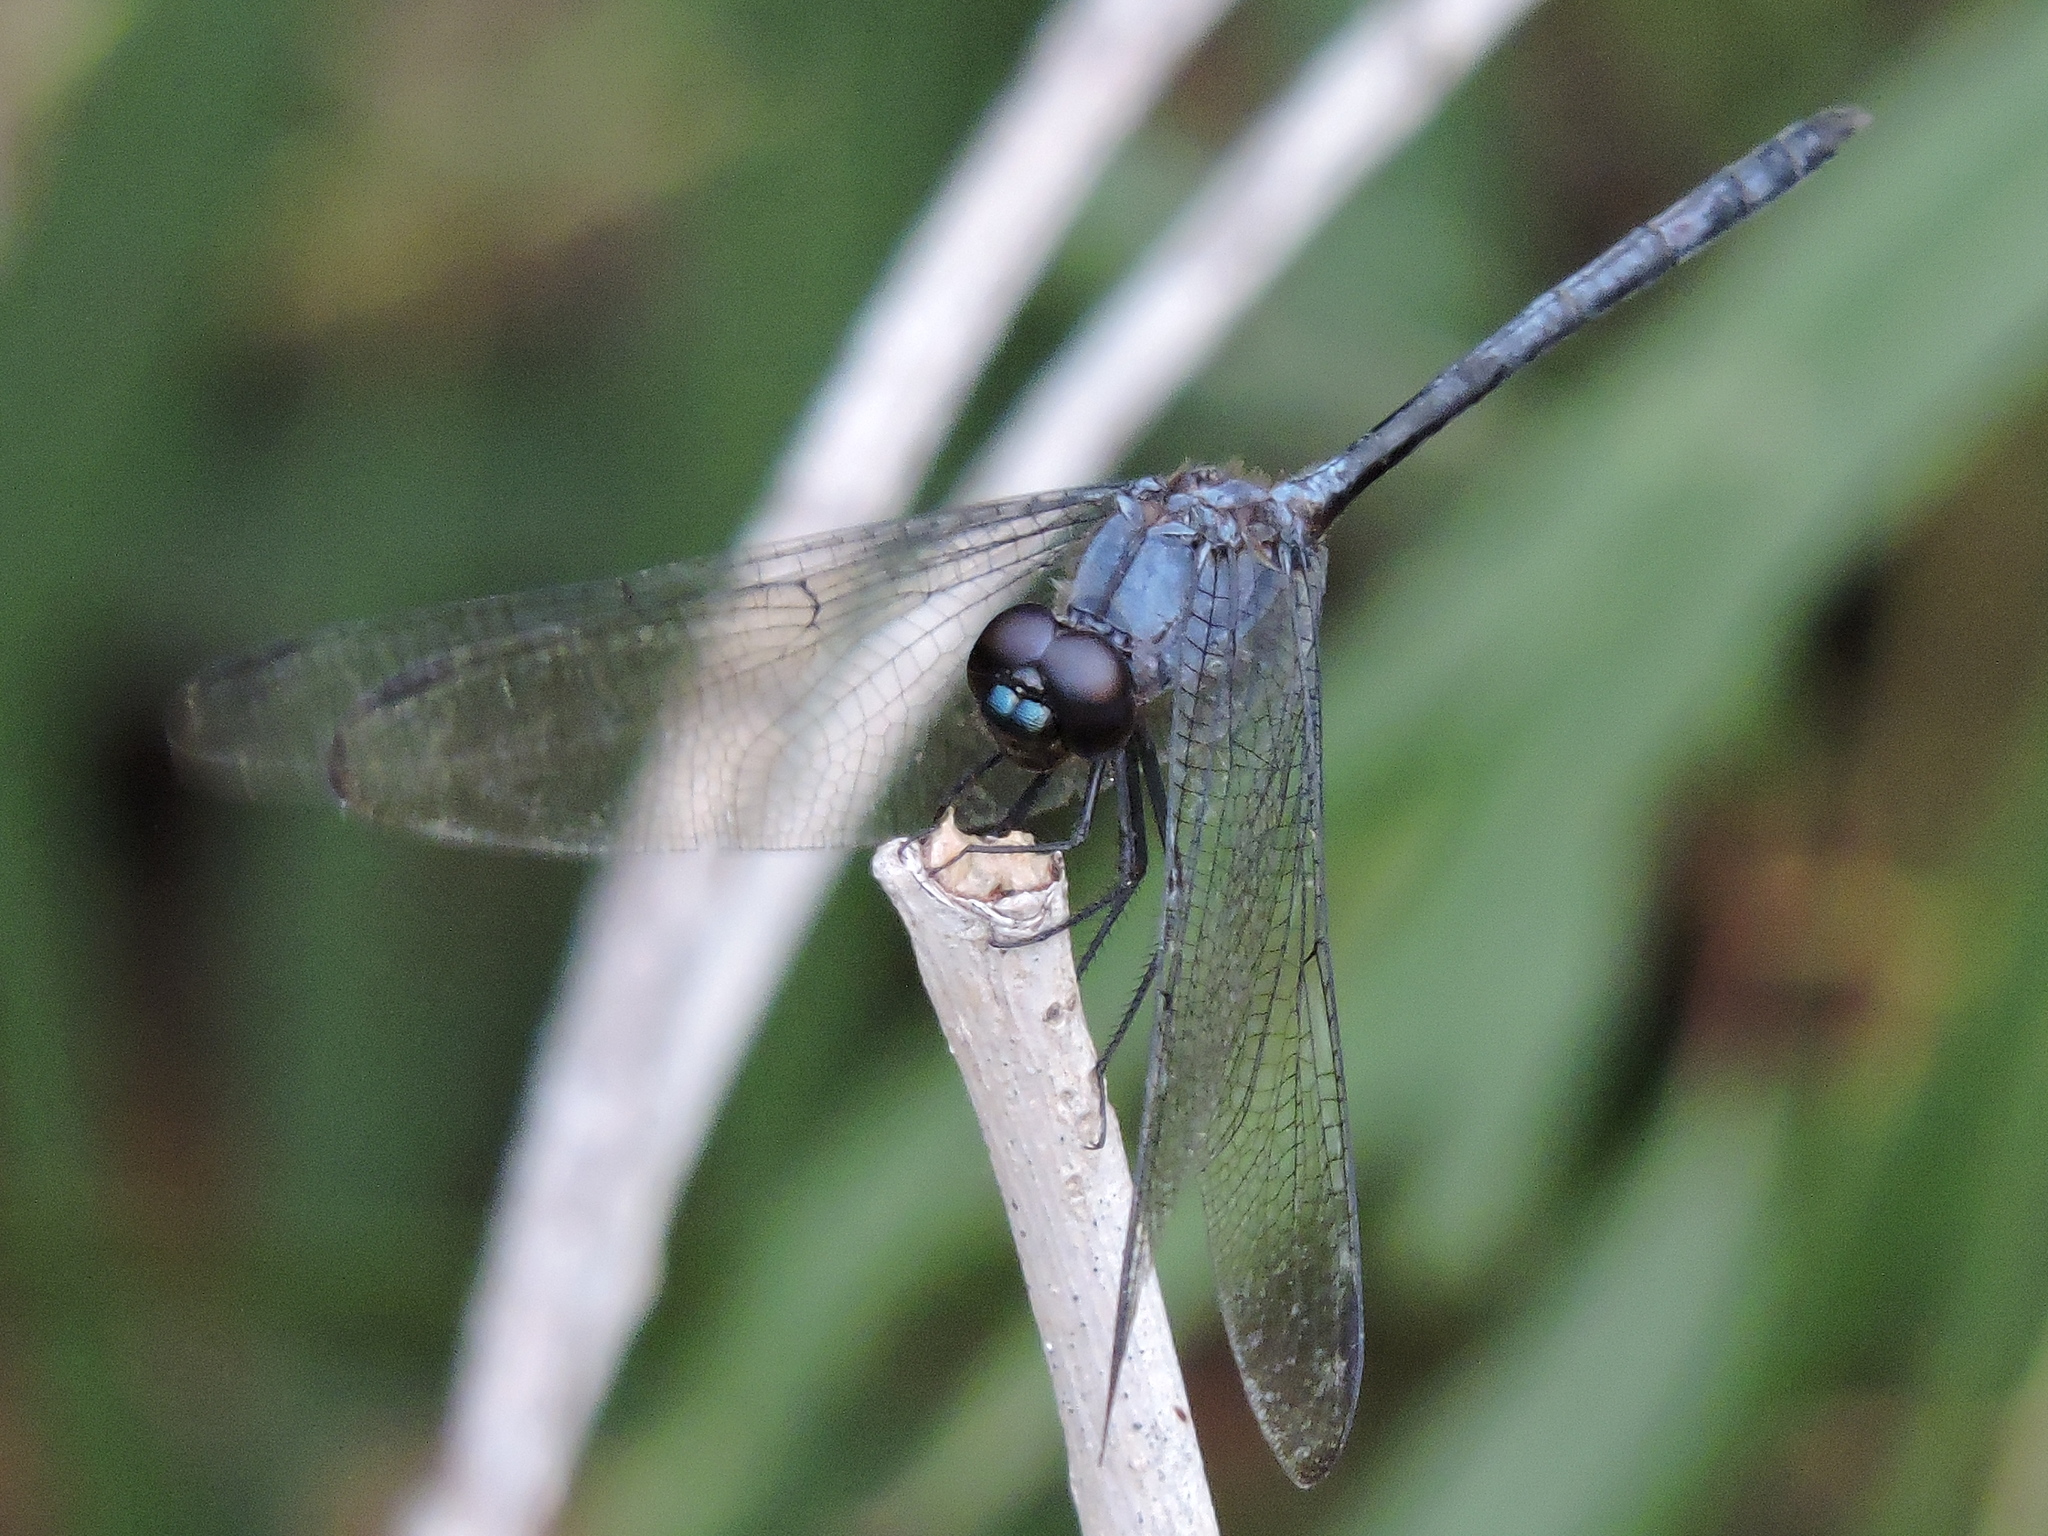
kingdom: Animalia
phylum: Arthropoda
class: Insecta
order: Odonata
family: Libellulidae
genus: Dythemis
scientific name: Dythemis nigrescens
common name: Black setwing
